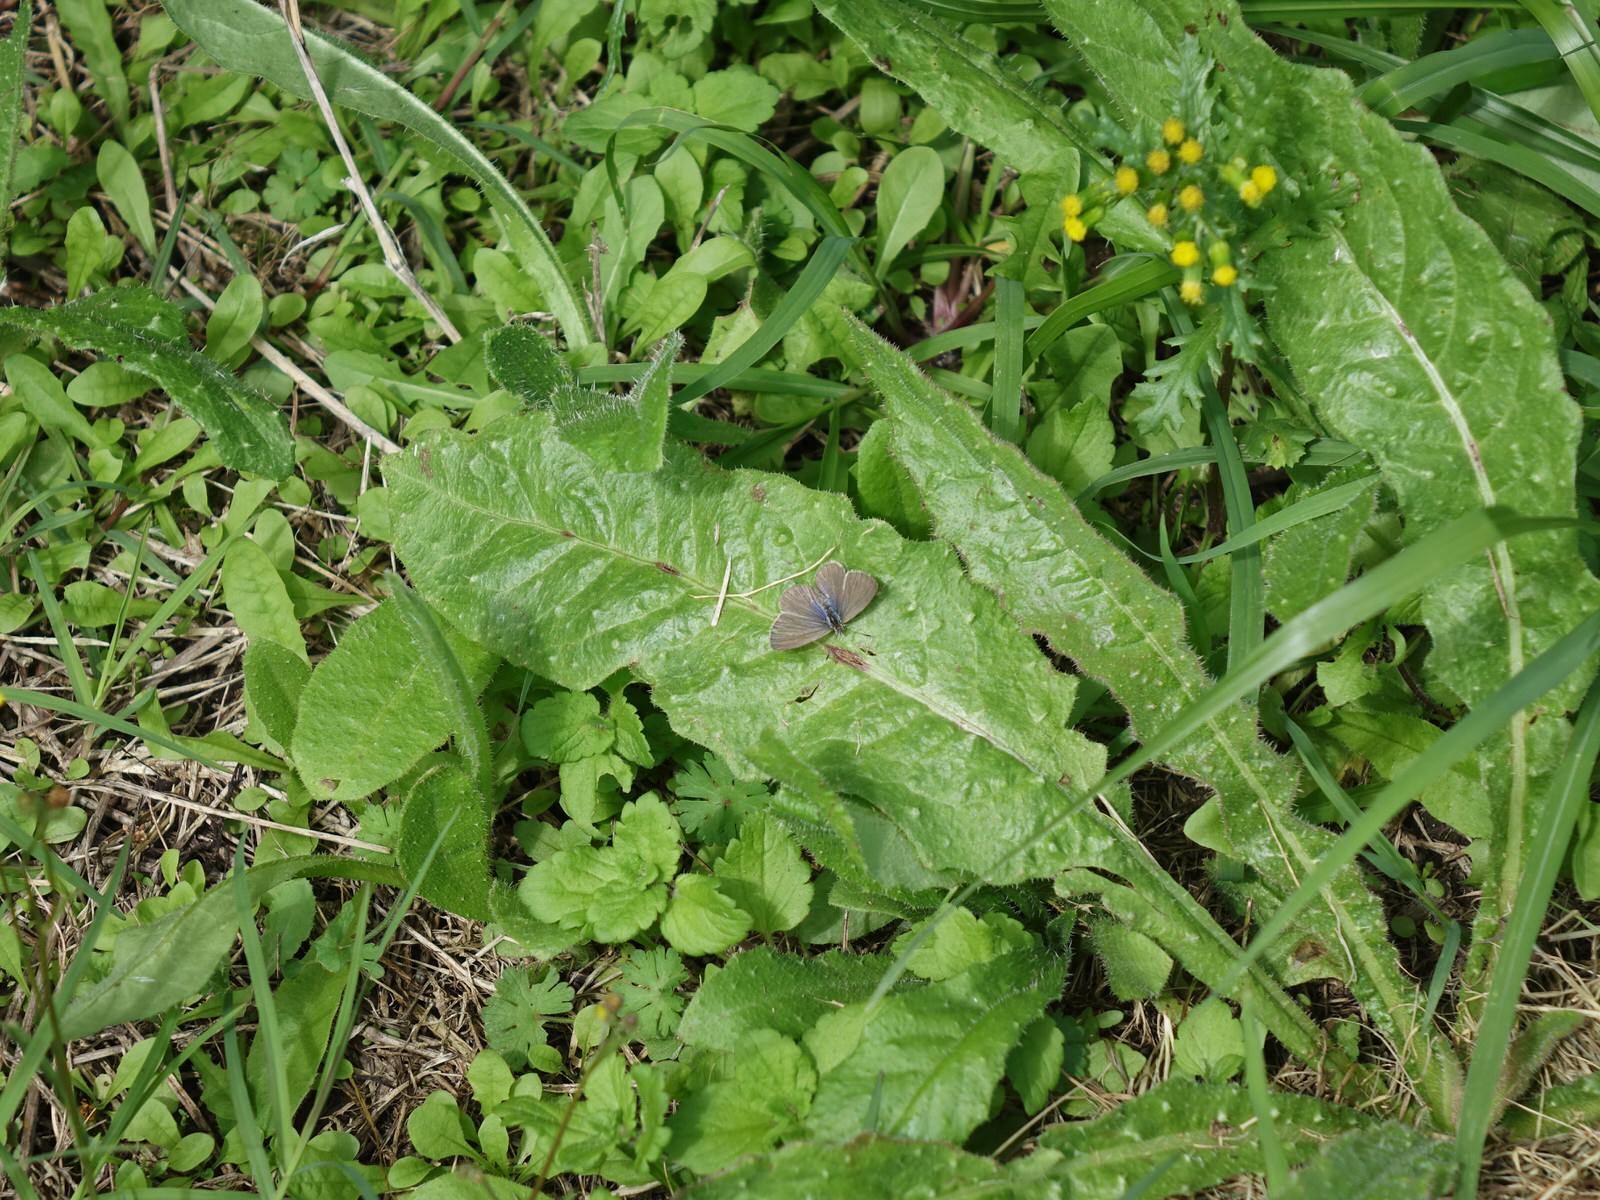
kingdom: Animalia
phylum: Arthropoda
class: Insecta
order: Lepidoptera
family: Lycaenidae
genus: Zizina
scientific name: Zizina labradus
